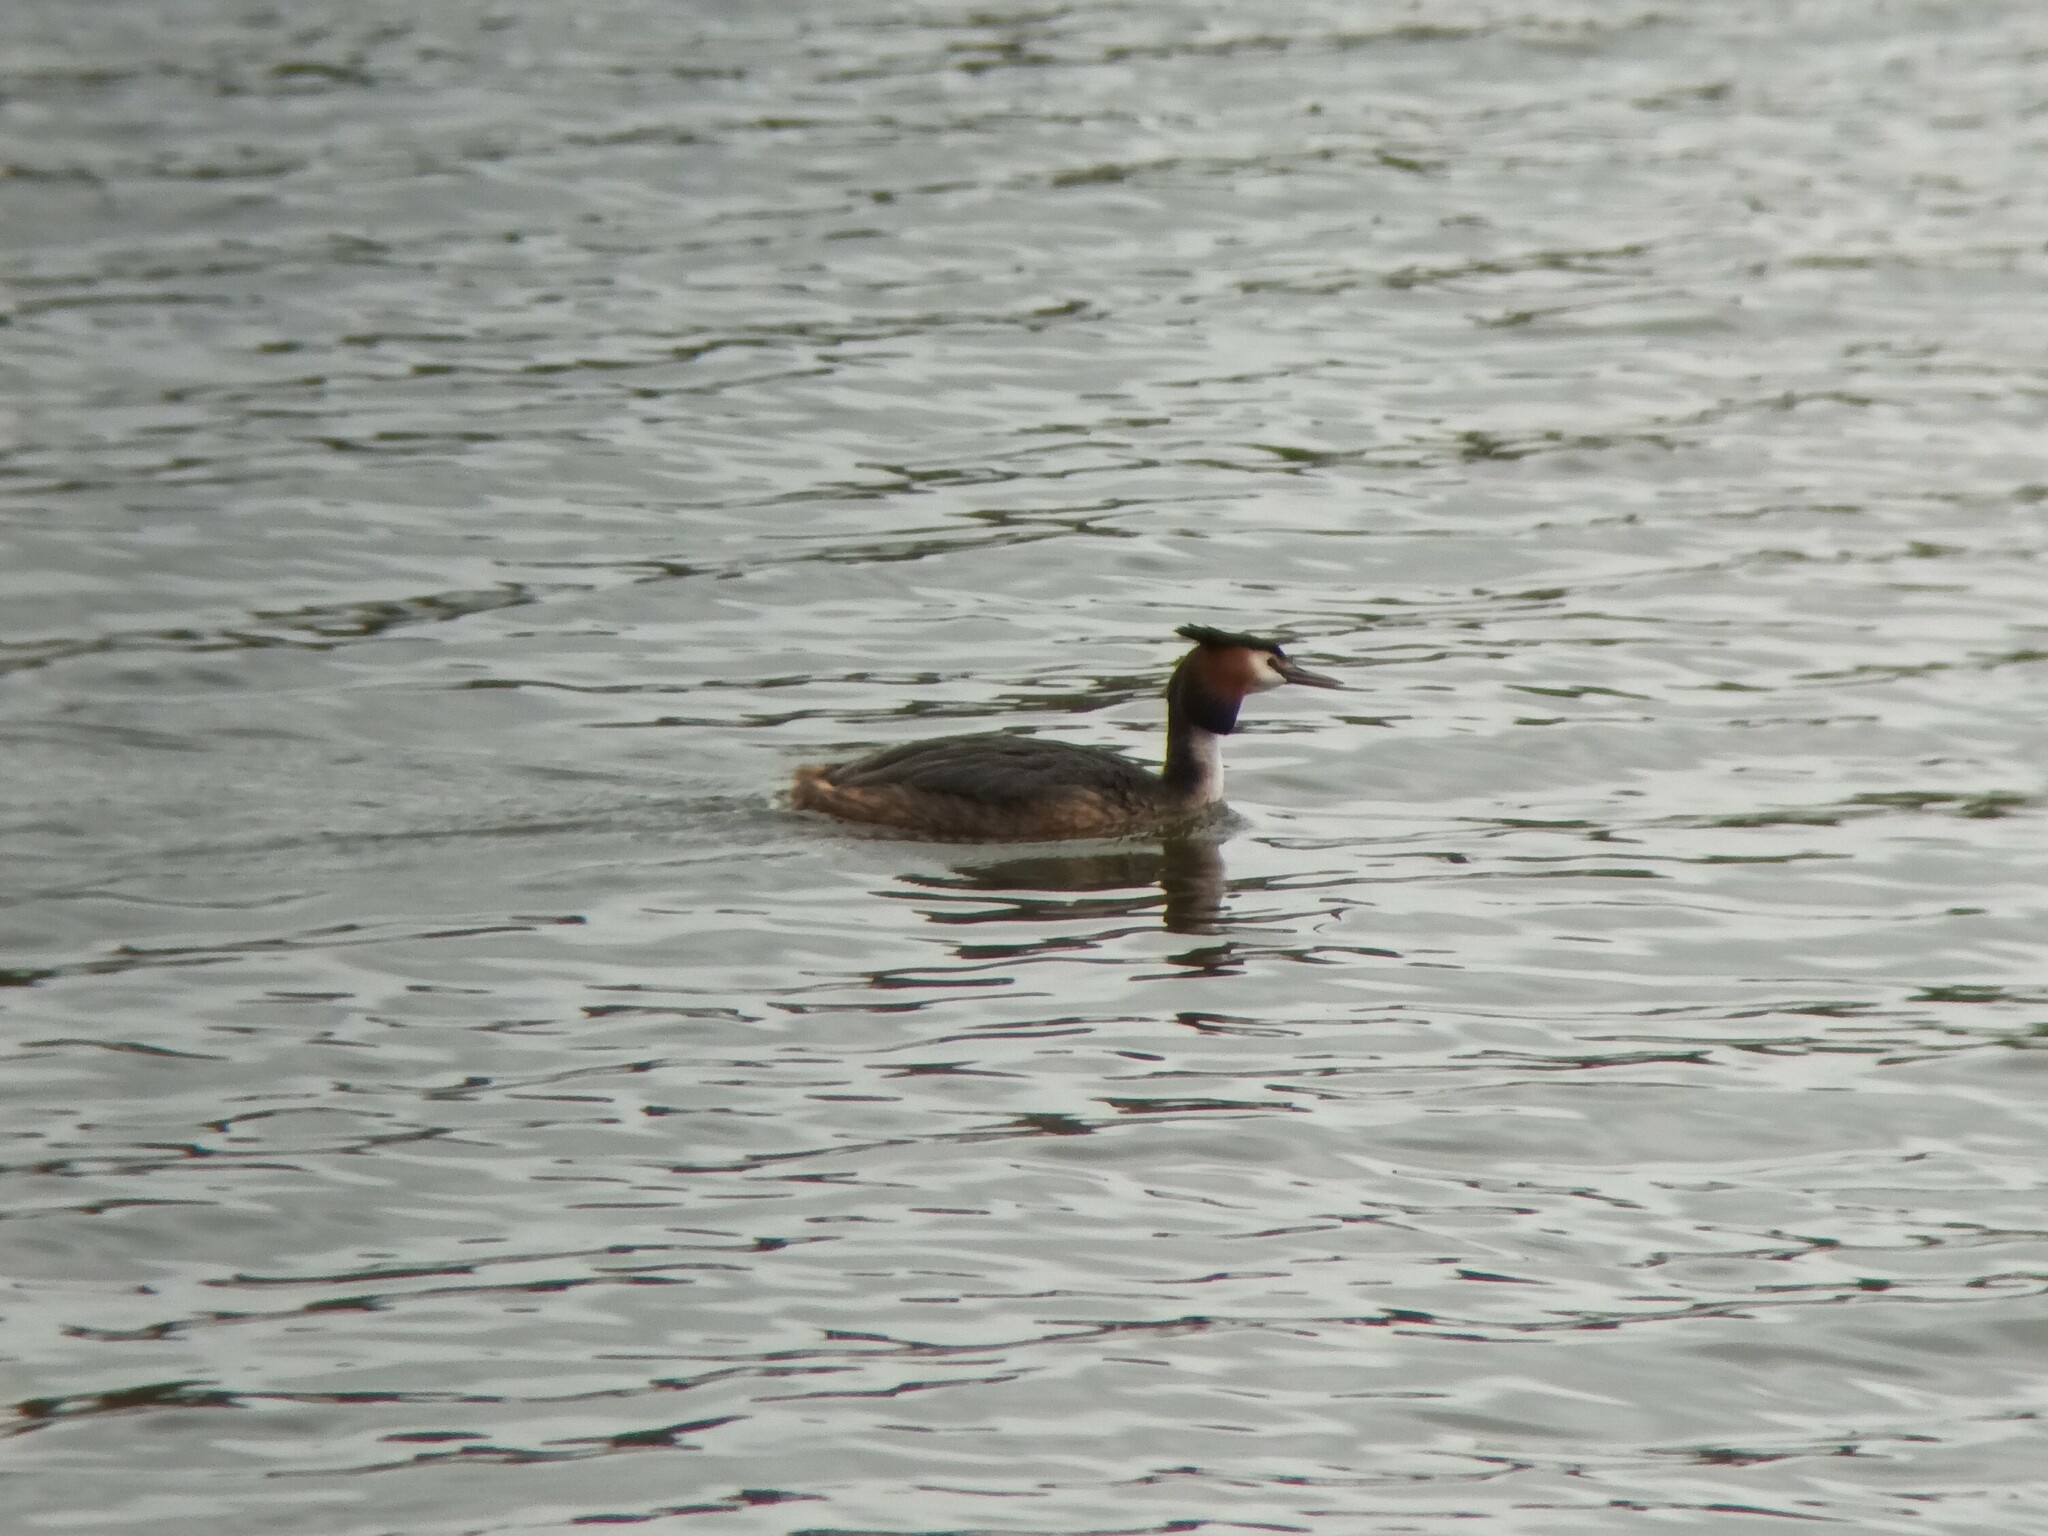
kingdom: Animalia
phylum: Chordata
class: Aves
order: Podicipediformes
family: Podicipedidae
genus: Podiceps
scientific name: Podiceps cristatus
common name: Great crested grebe
